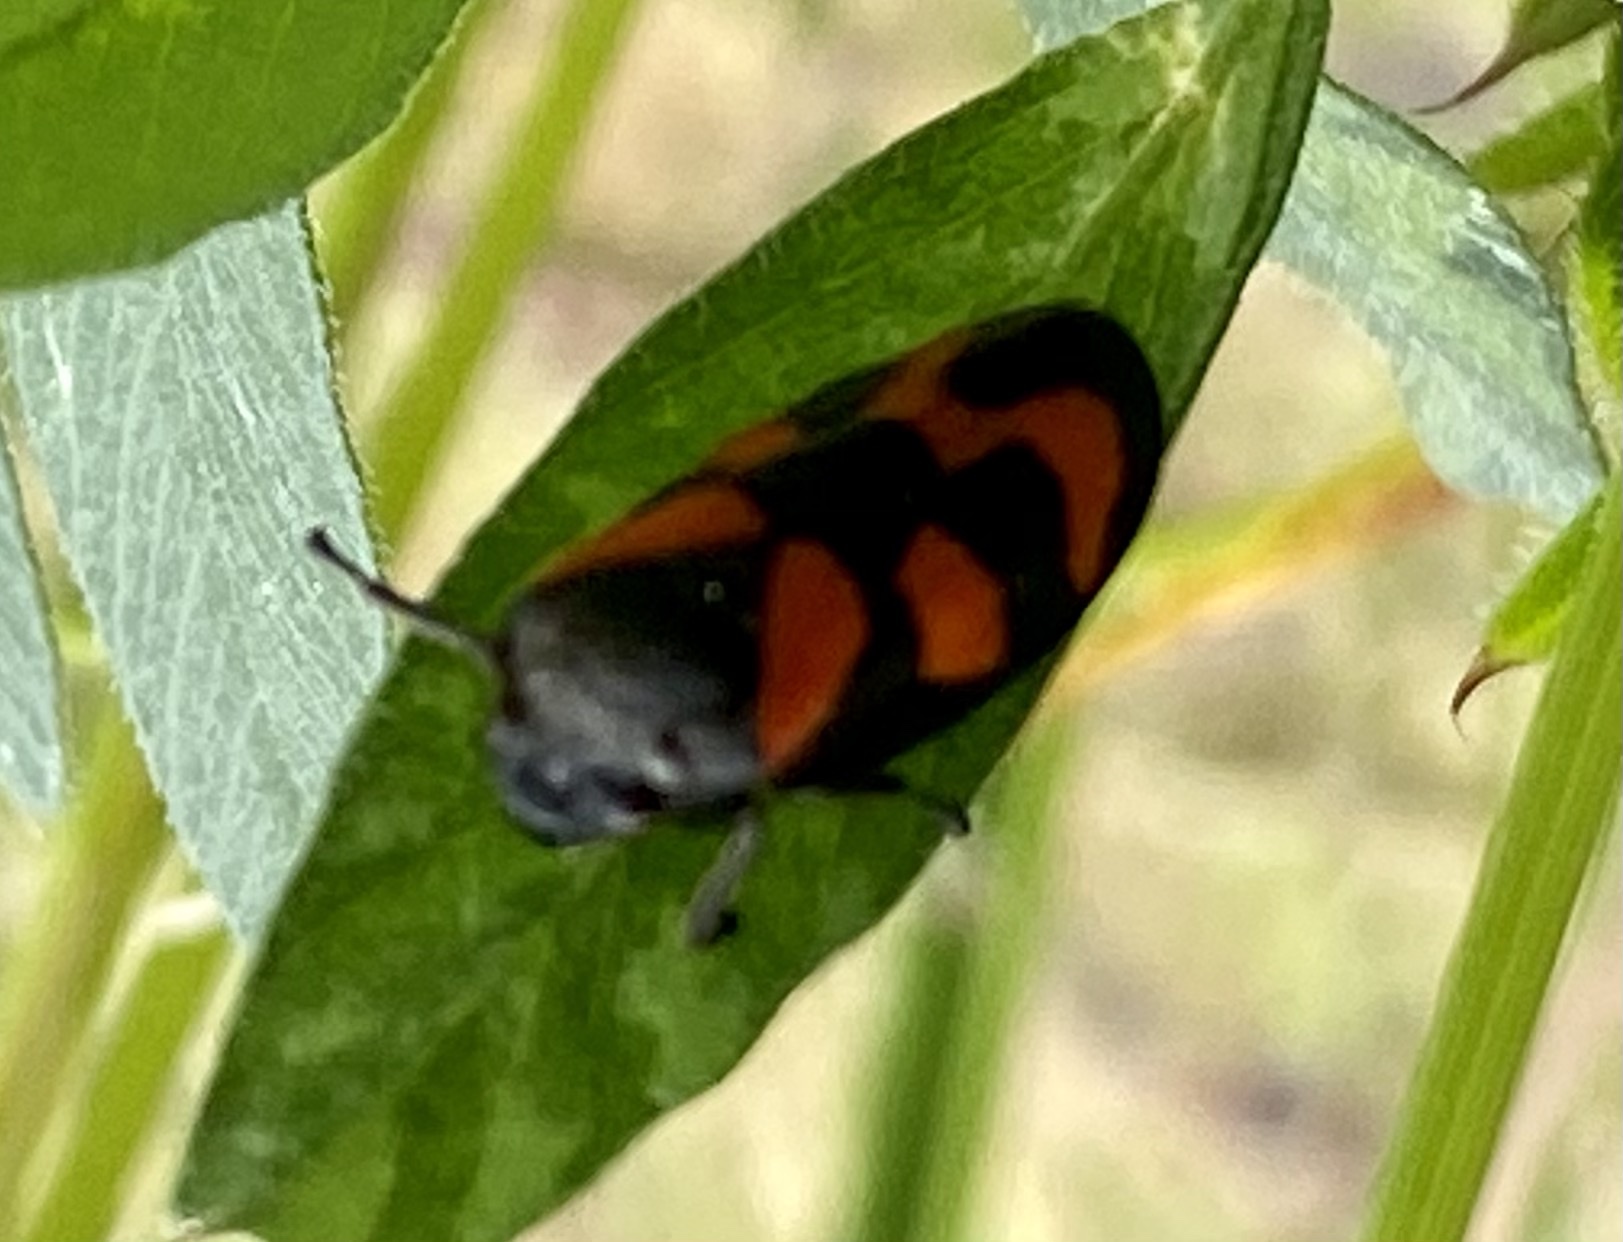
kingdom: Animalia
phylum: Arthropoda
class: Insecta
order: Hemiptera
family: Cercopidae
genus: Cercopis
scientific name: Cercopis vulnerata
